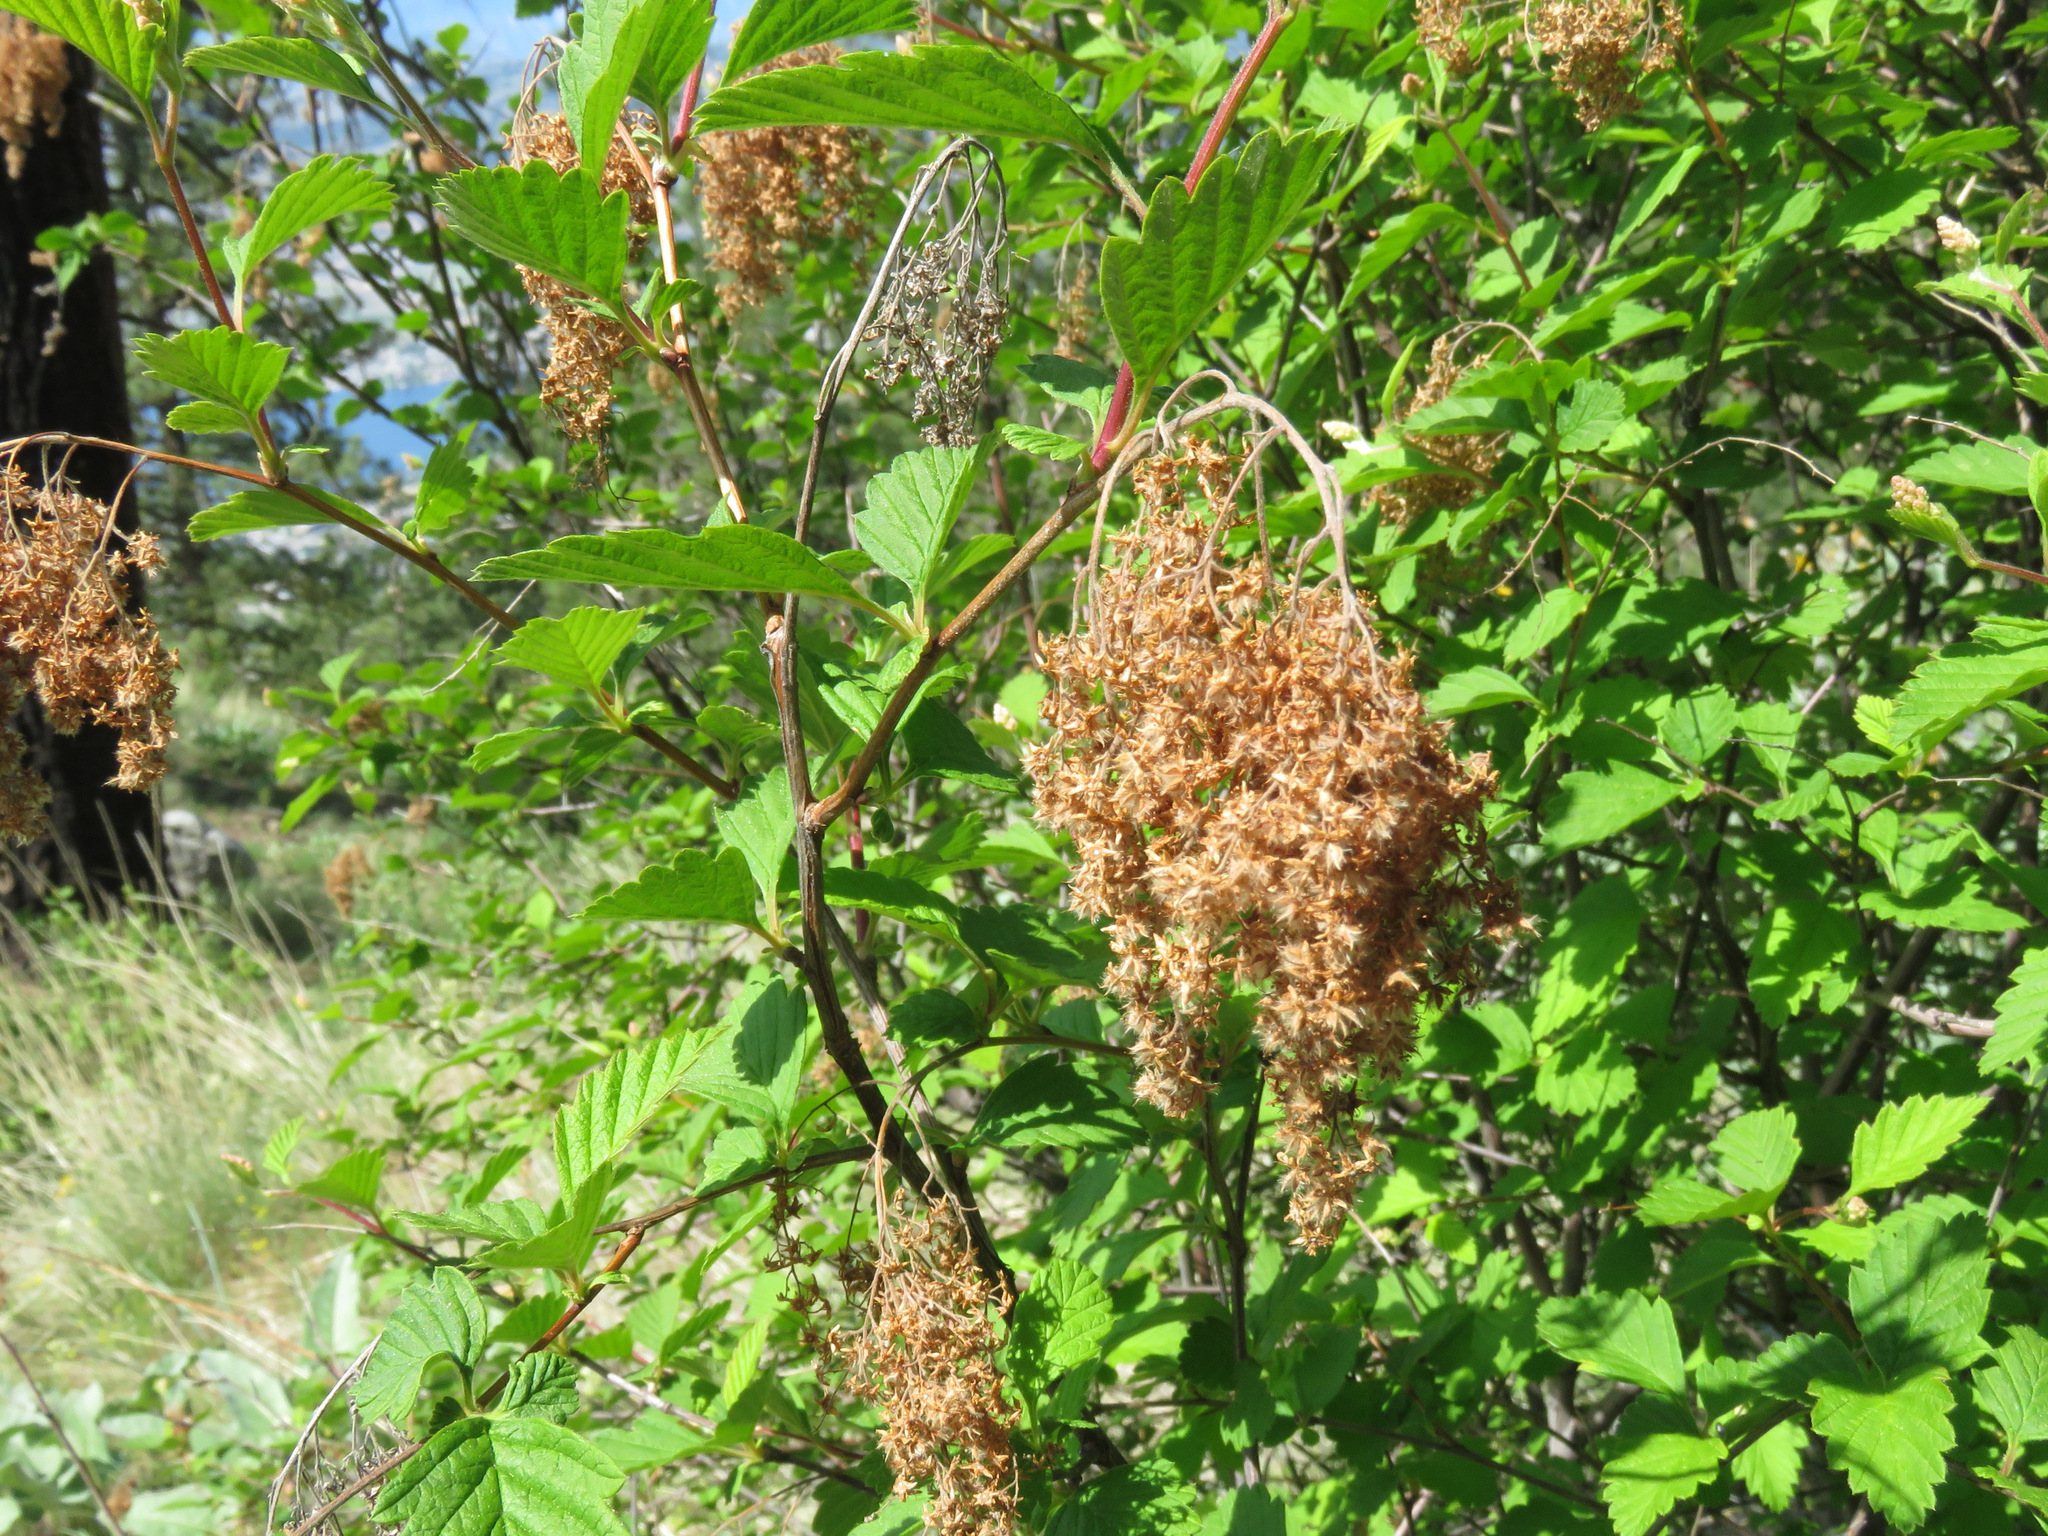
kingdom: Plantae
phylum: Tracheophyta
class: Magnoliopsida
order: Rosales
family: Rosaceae
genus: Holodiscus
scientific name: Holodiscus discolor
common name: Oceanspray
